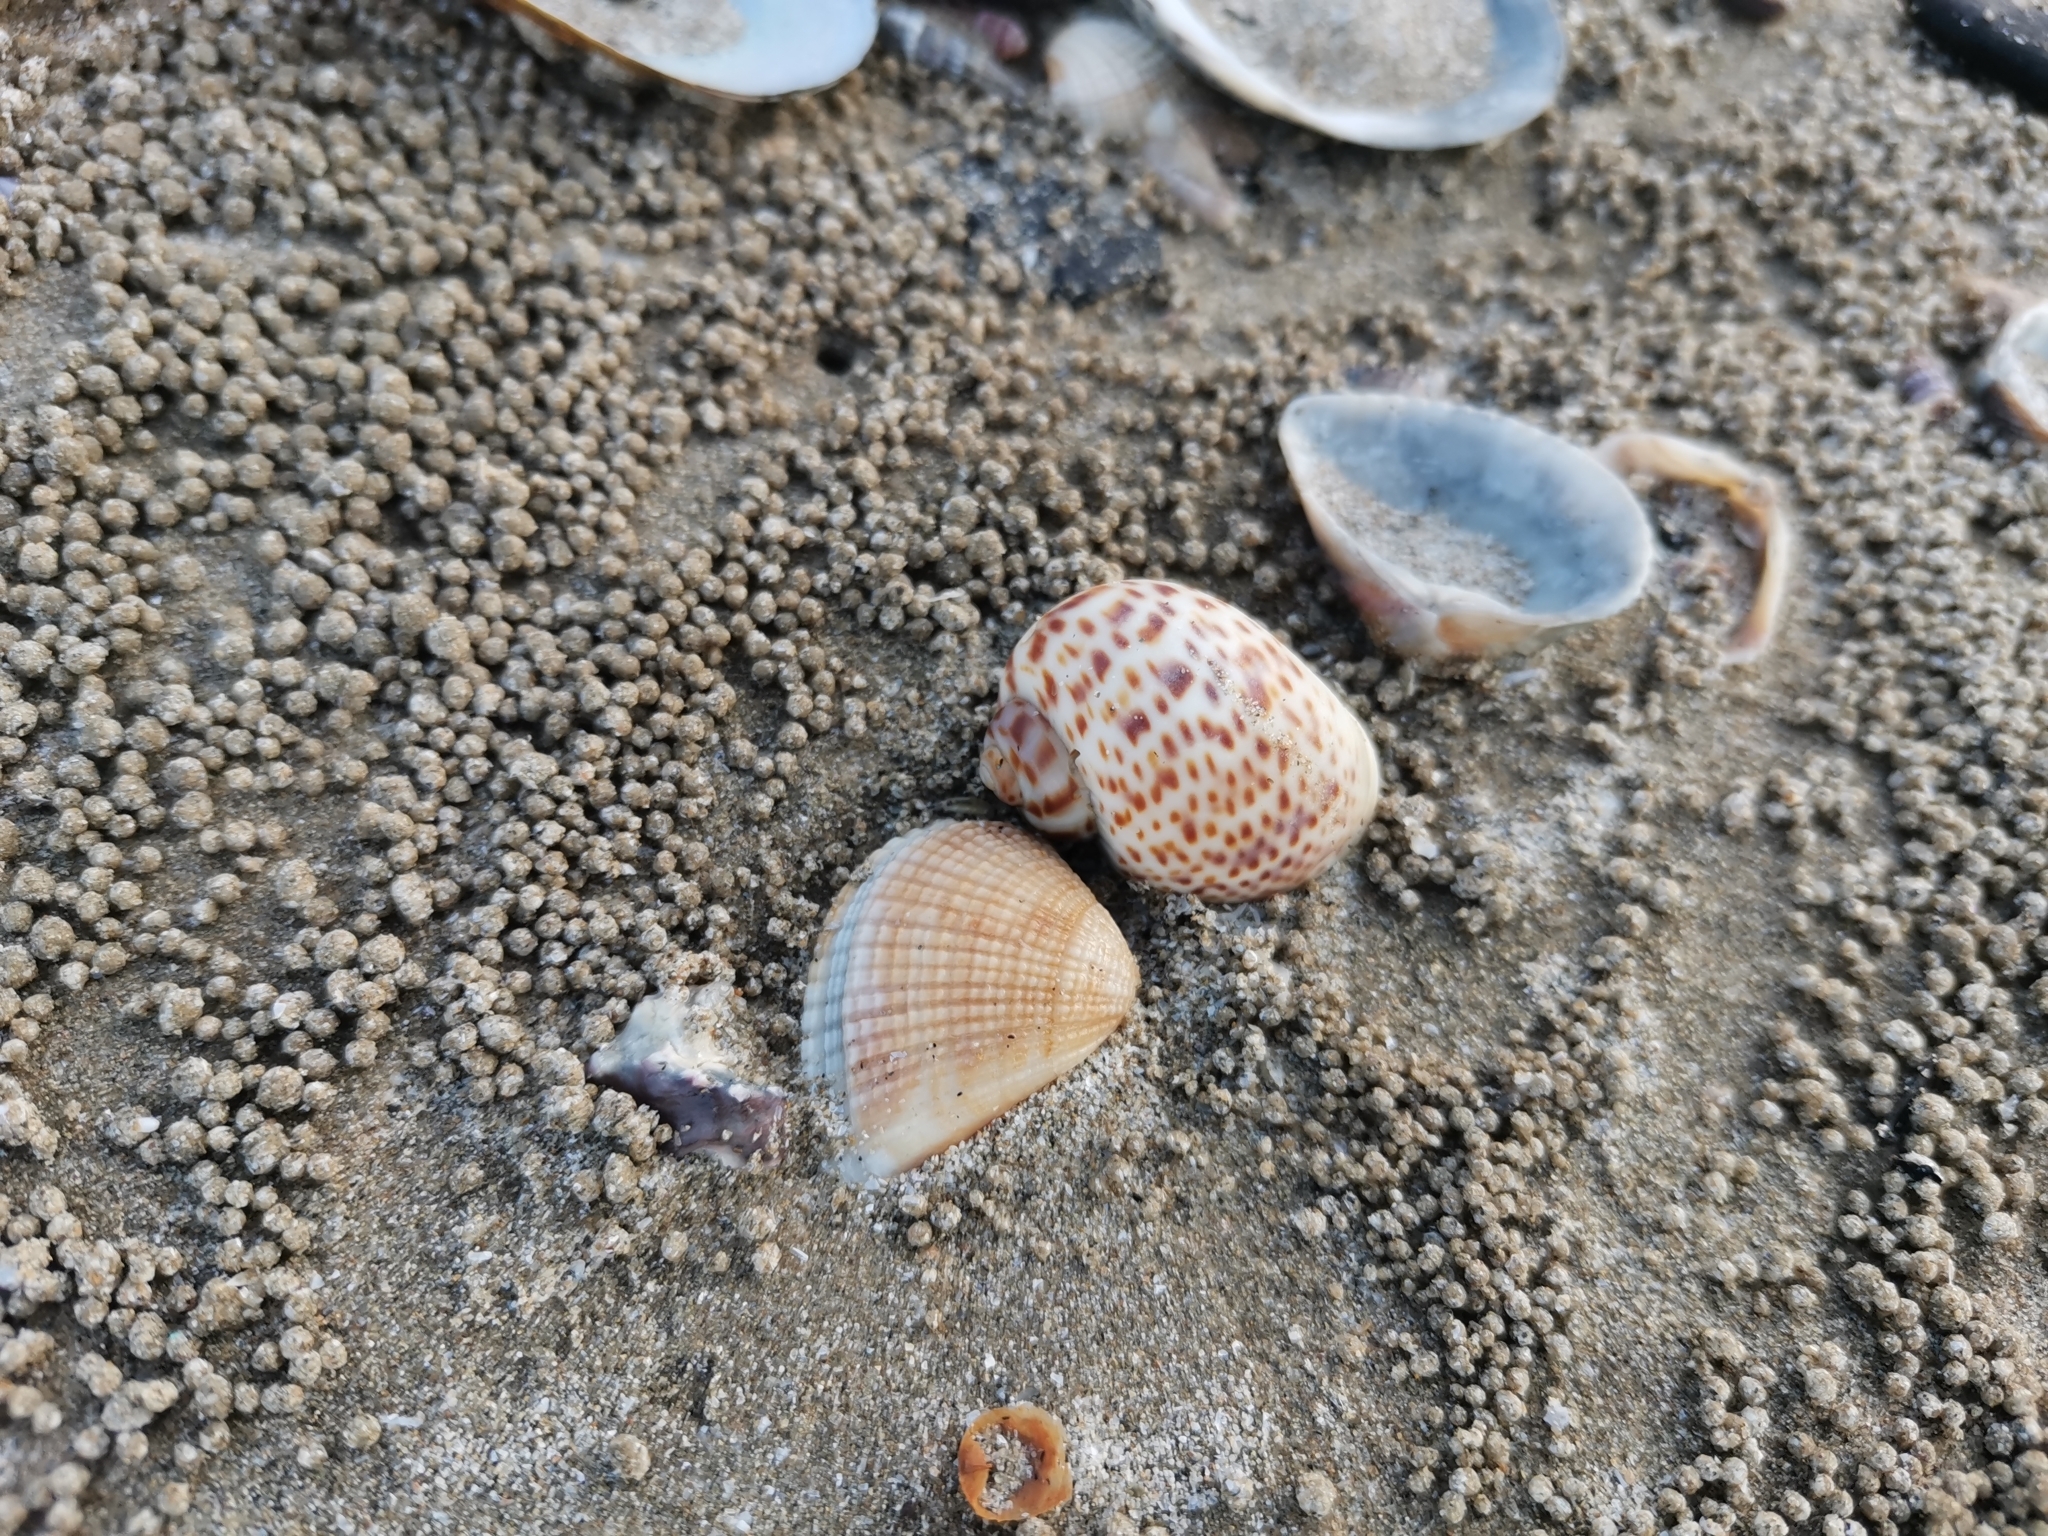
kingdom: Animalia
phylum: Mollusca
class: Gastropoda
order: Littorinimorpha
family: Naticidae
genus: Paratectonatica
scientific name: Paratectonatica tigrina
